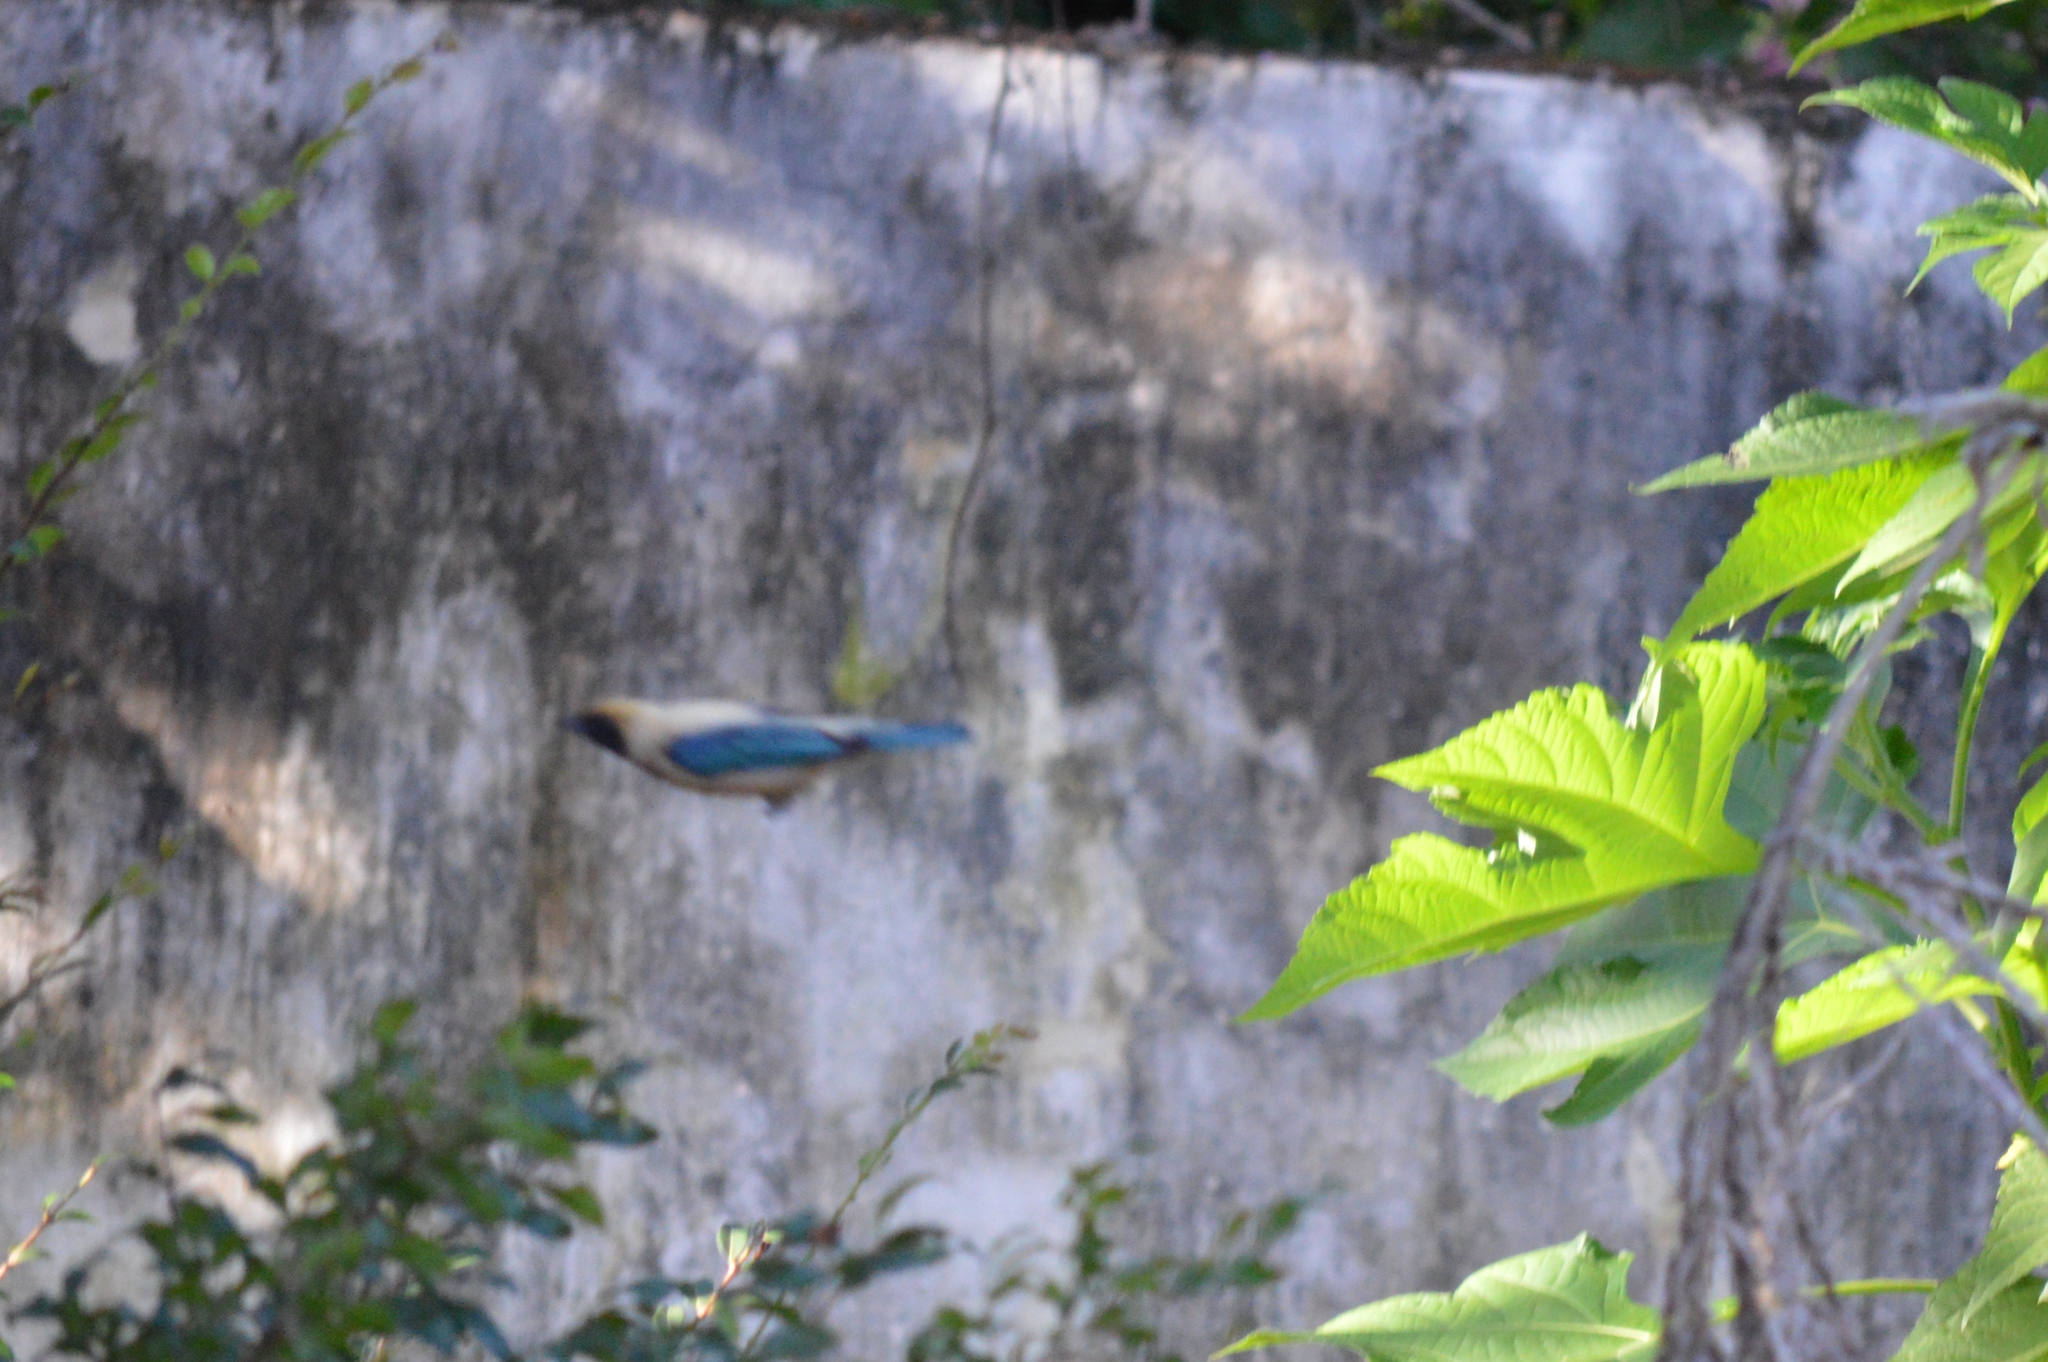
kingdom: Animalia
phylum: Chordata
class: Aves
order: Passeriformes
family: Thraupidae
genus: Stilpnia
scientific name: Stilpnia cayana
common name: Burnished-buff tanager
